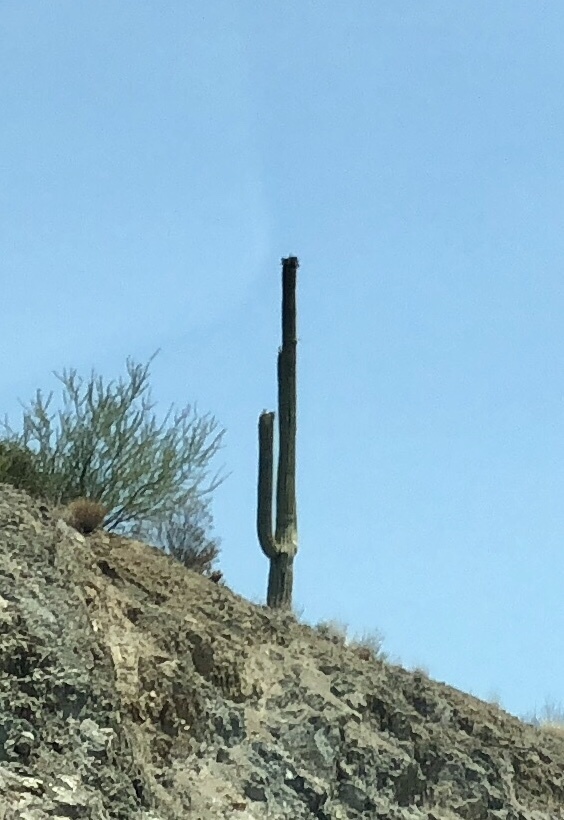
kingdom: Plantae
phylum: Tracheophyta
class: Magnoliopsida
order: Caryophyllales
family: Cactaceae
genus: Carnegiea
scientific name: Carnegiea gigantea
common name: Saguaro
